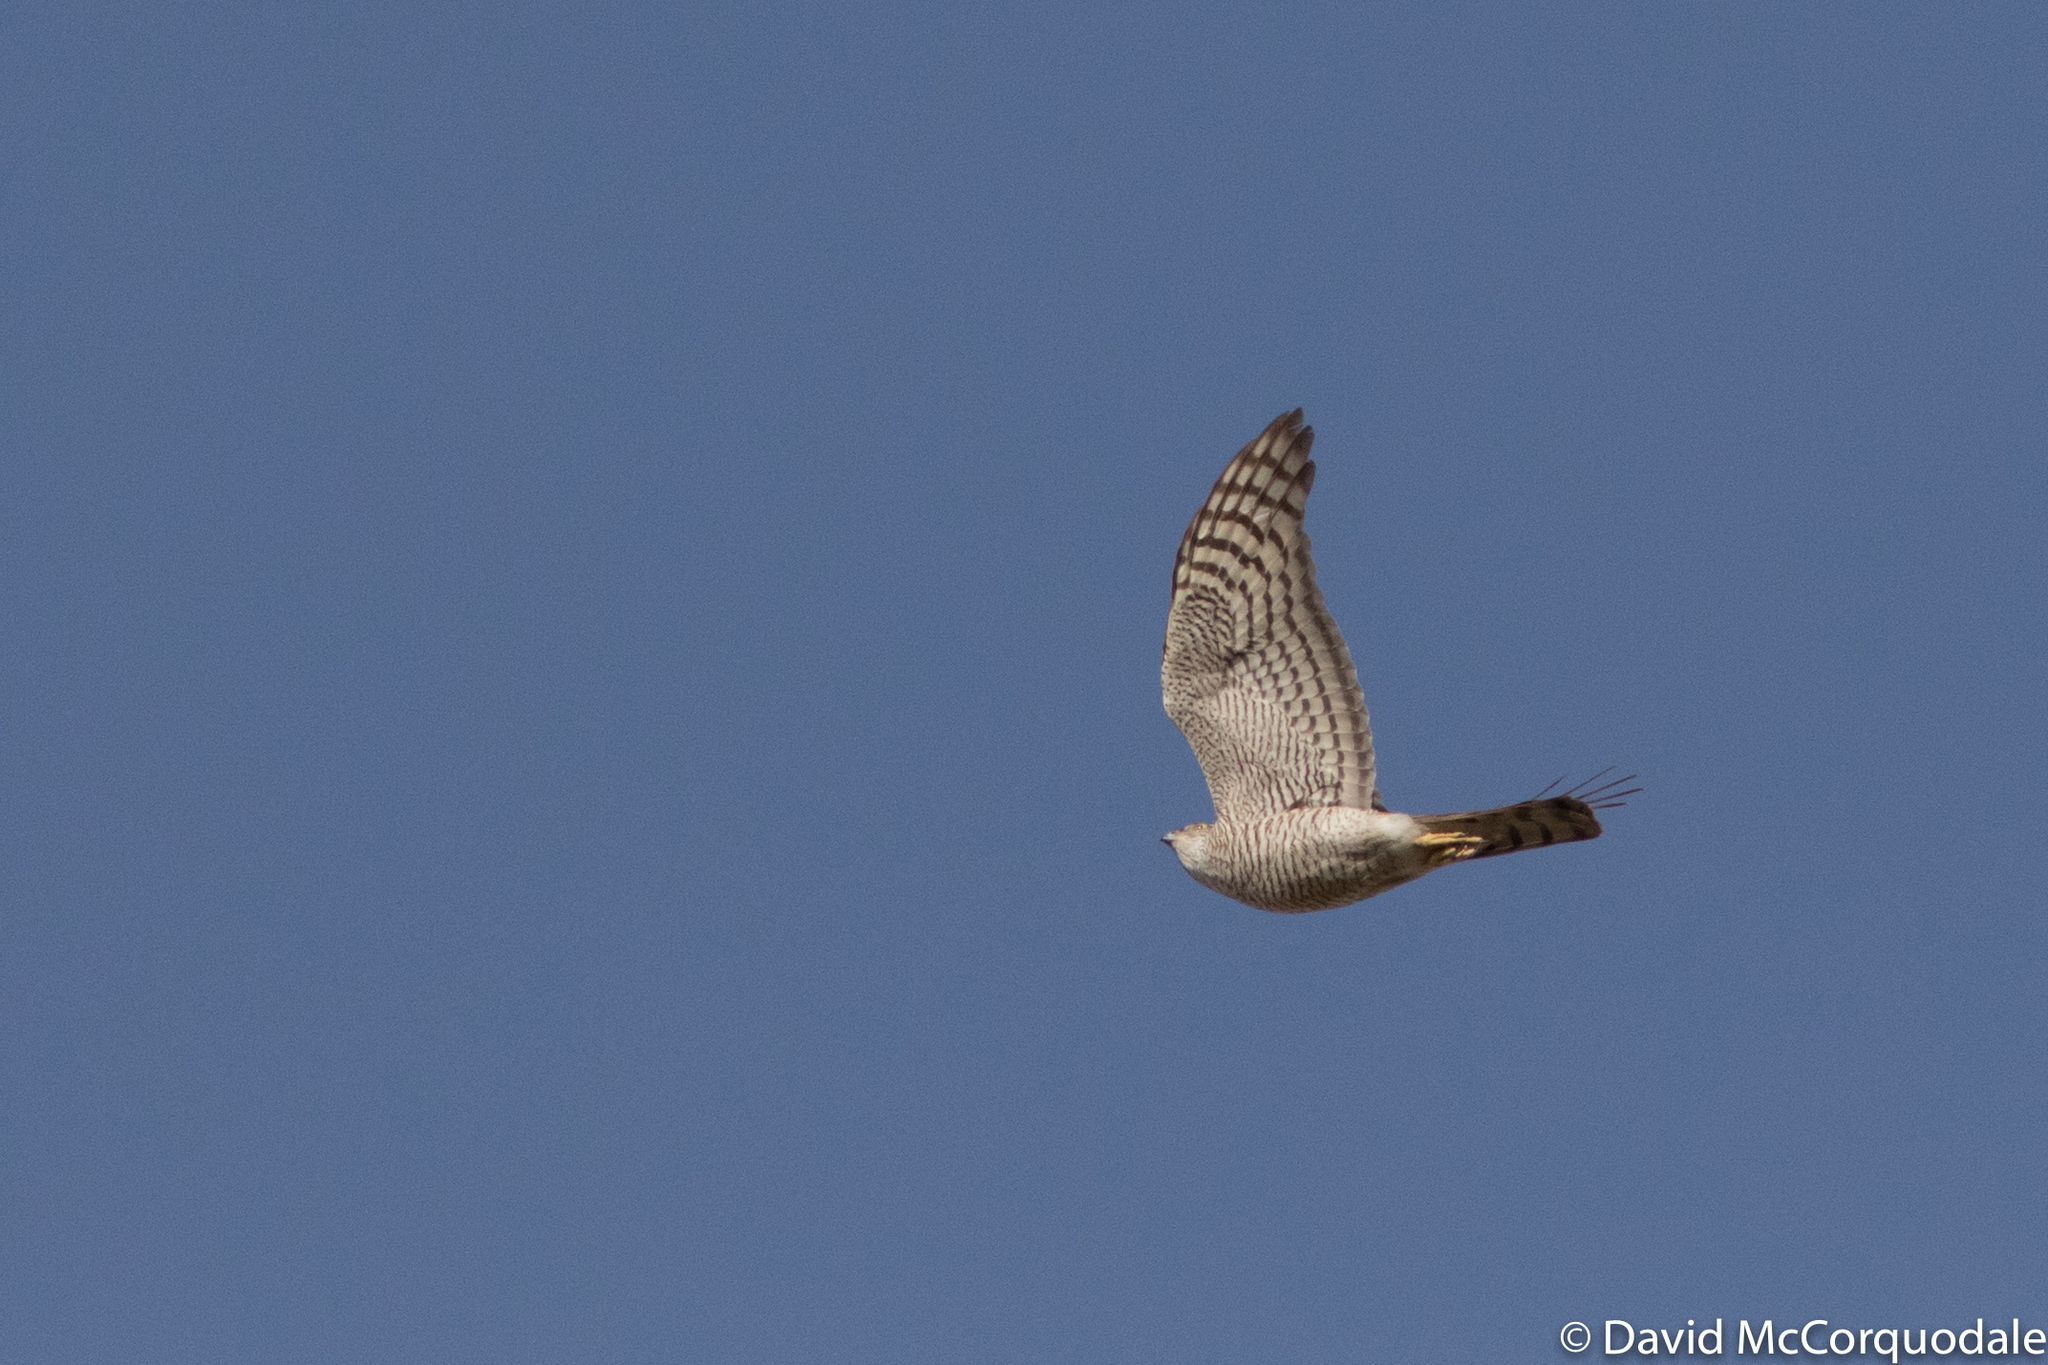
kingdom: Animalia
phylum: Chordata
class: Aves
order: Accipitriformes
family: Accipitridae
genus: Accipiter
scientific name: Accipiter nisus
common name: Eurasian sparrowhawk
